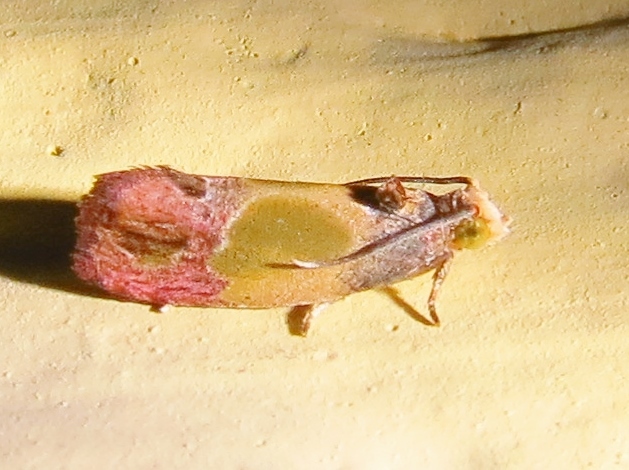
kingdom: Animalia
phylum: Arthropoda
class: Insecta
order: Lepidoptera
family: Tortricidae
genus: Eumarozia
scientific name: Eumarozia malachitana
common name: Sculptured moth
